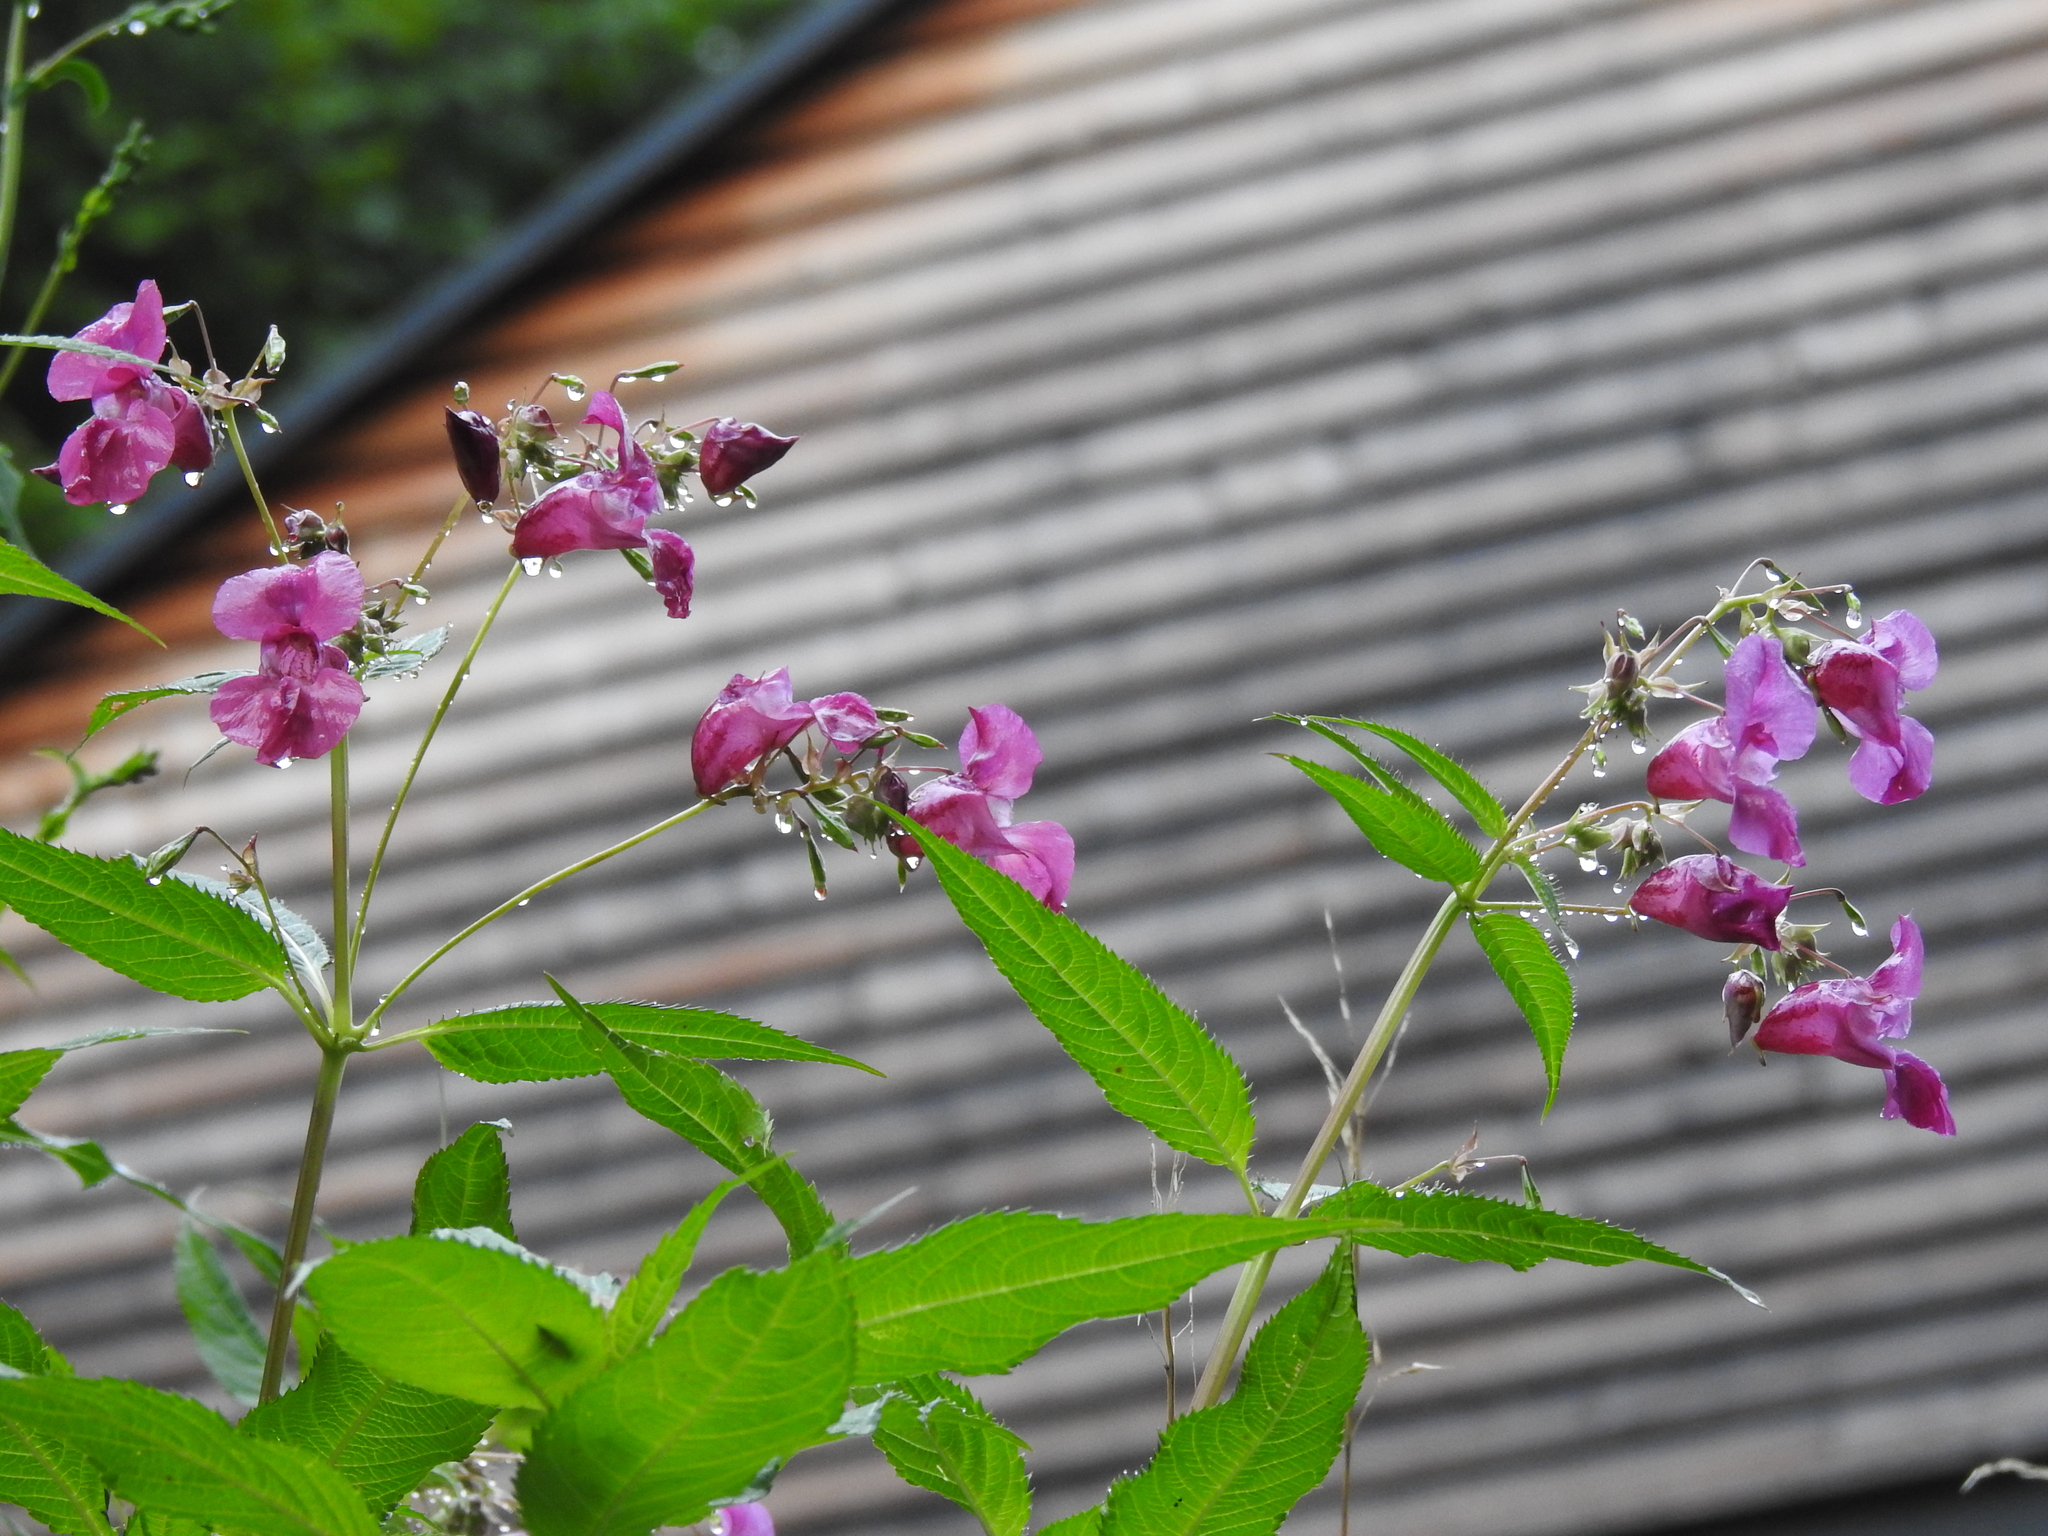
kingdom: Plantae
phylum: Tracheophyta
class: Magnoliopsida
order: Ericales
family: Balsaminaceae
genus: Impatiens
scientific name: Impatiens glandulifera
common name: Himalayan balsam
